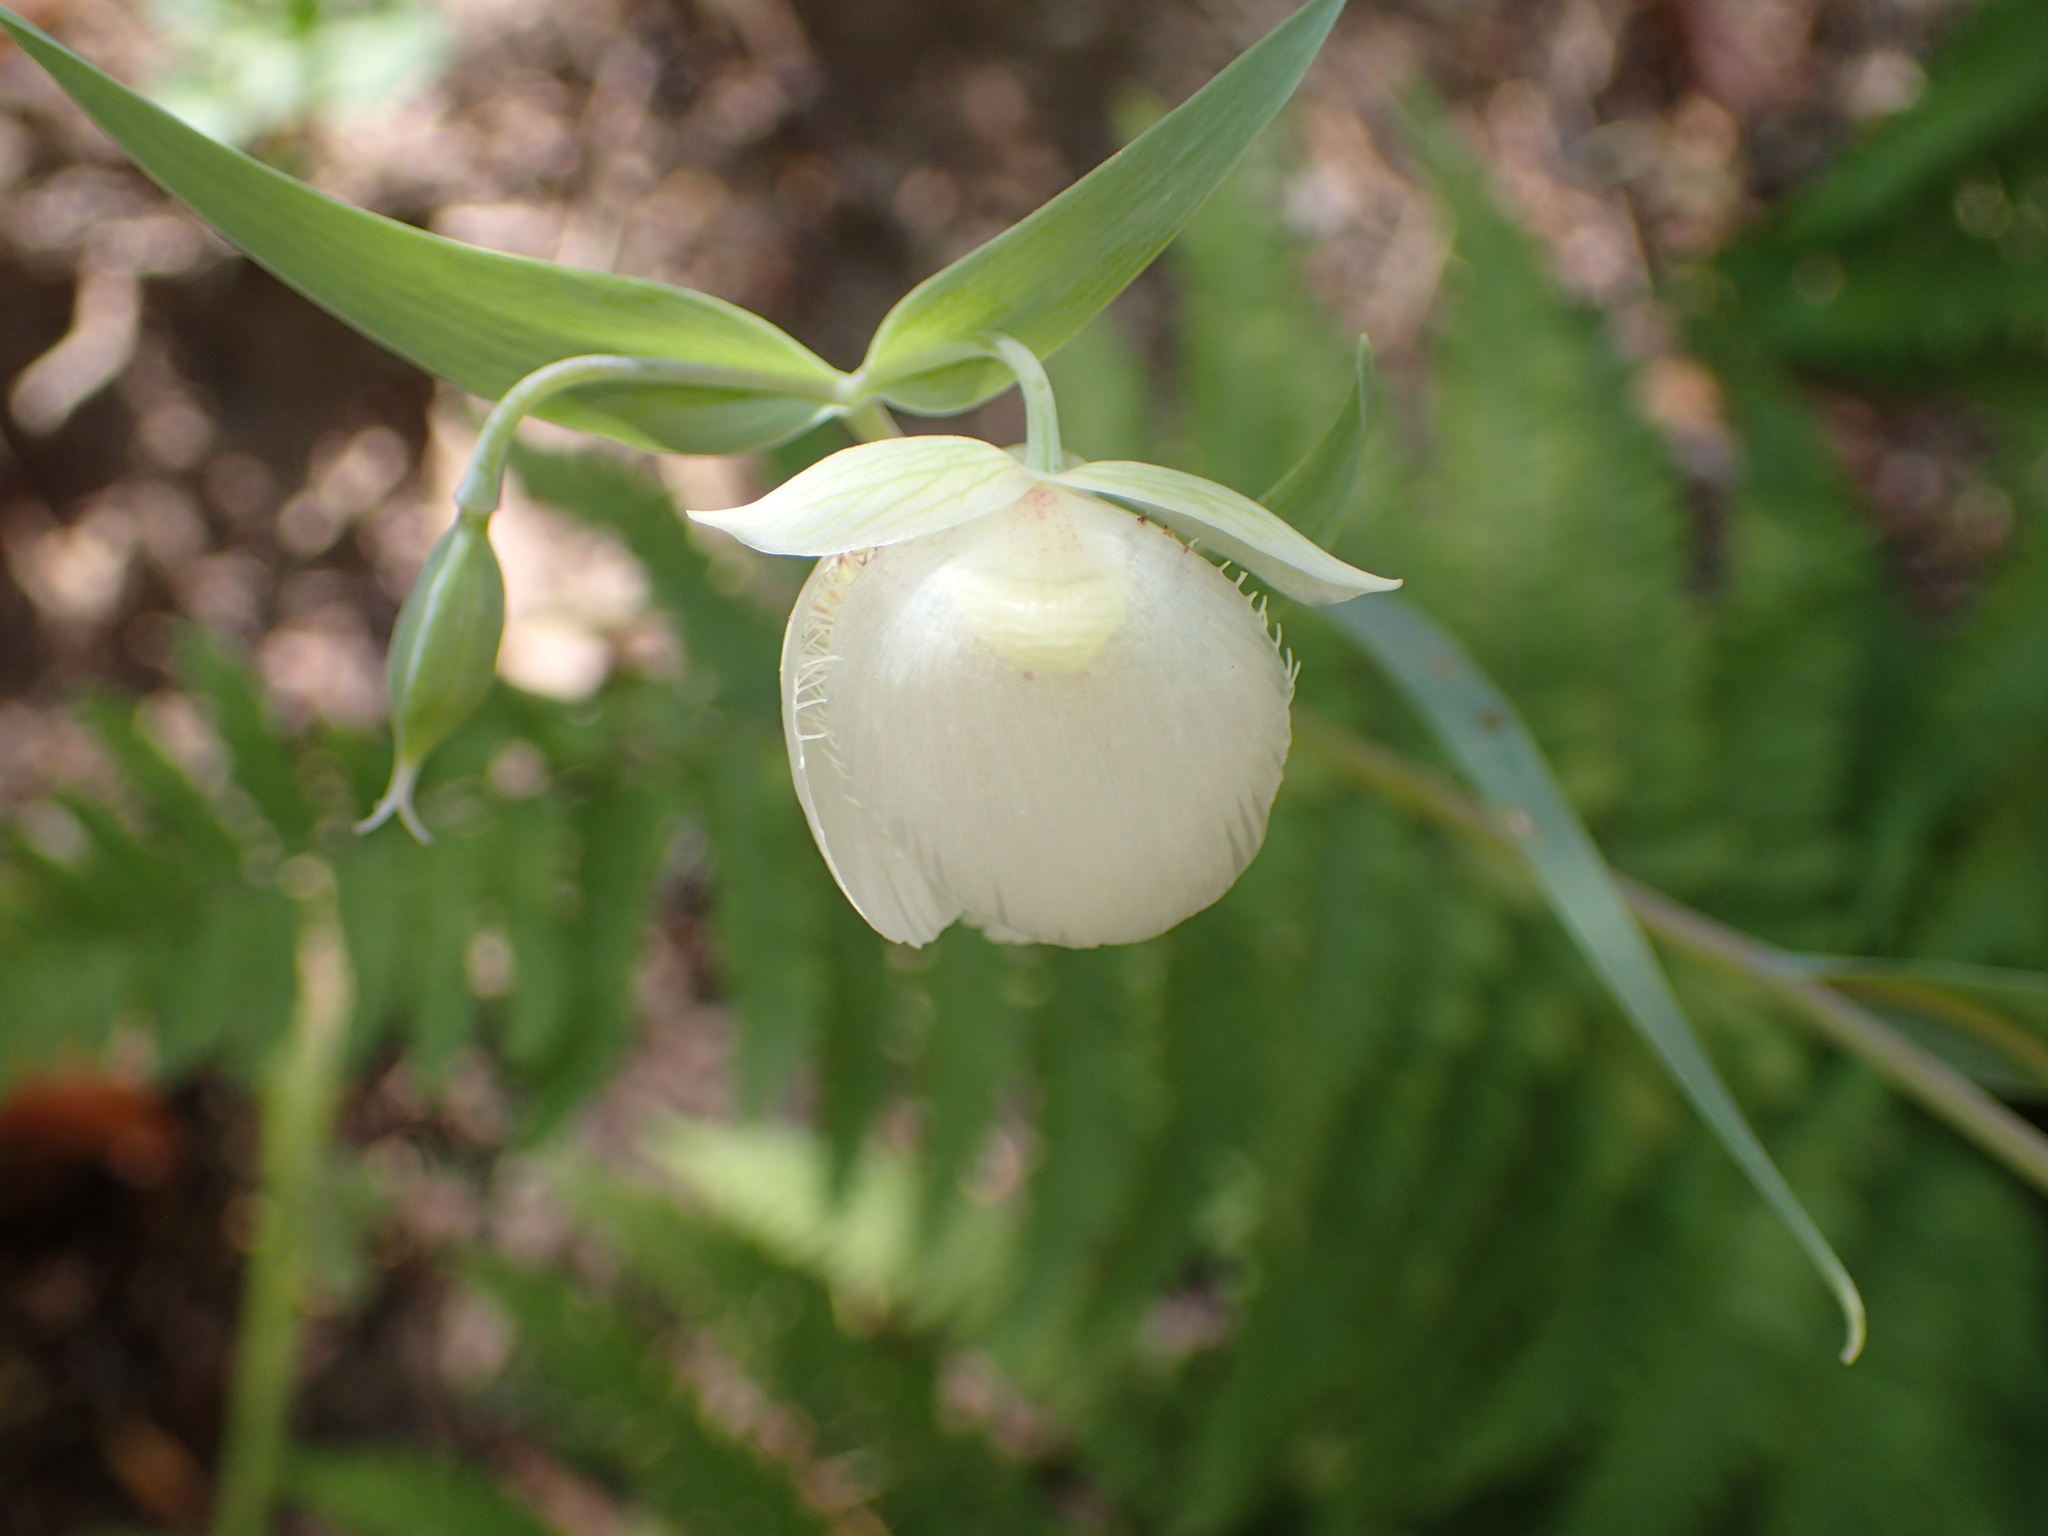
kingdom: Plantae
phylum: Tracheophyta
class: Liliopsida
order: Liliales
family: Liliaceae
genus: Calochortus
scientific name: Calochortus albus
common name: Fairy-lantern
